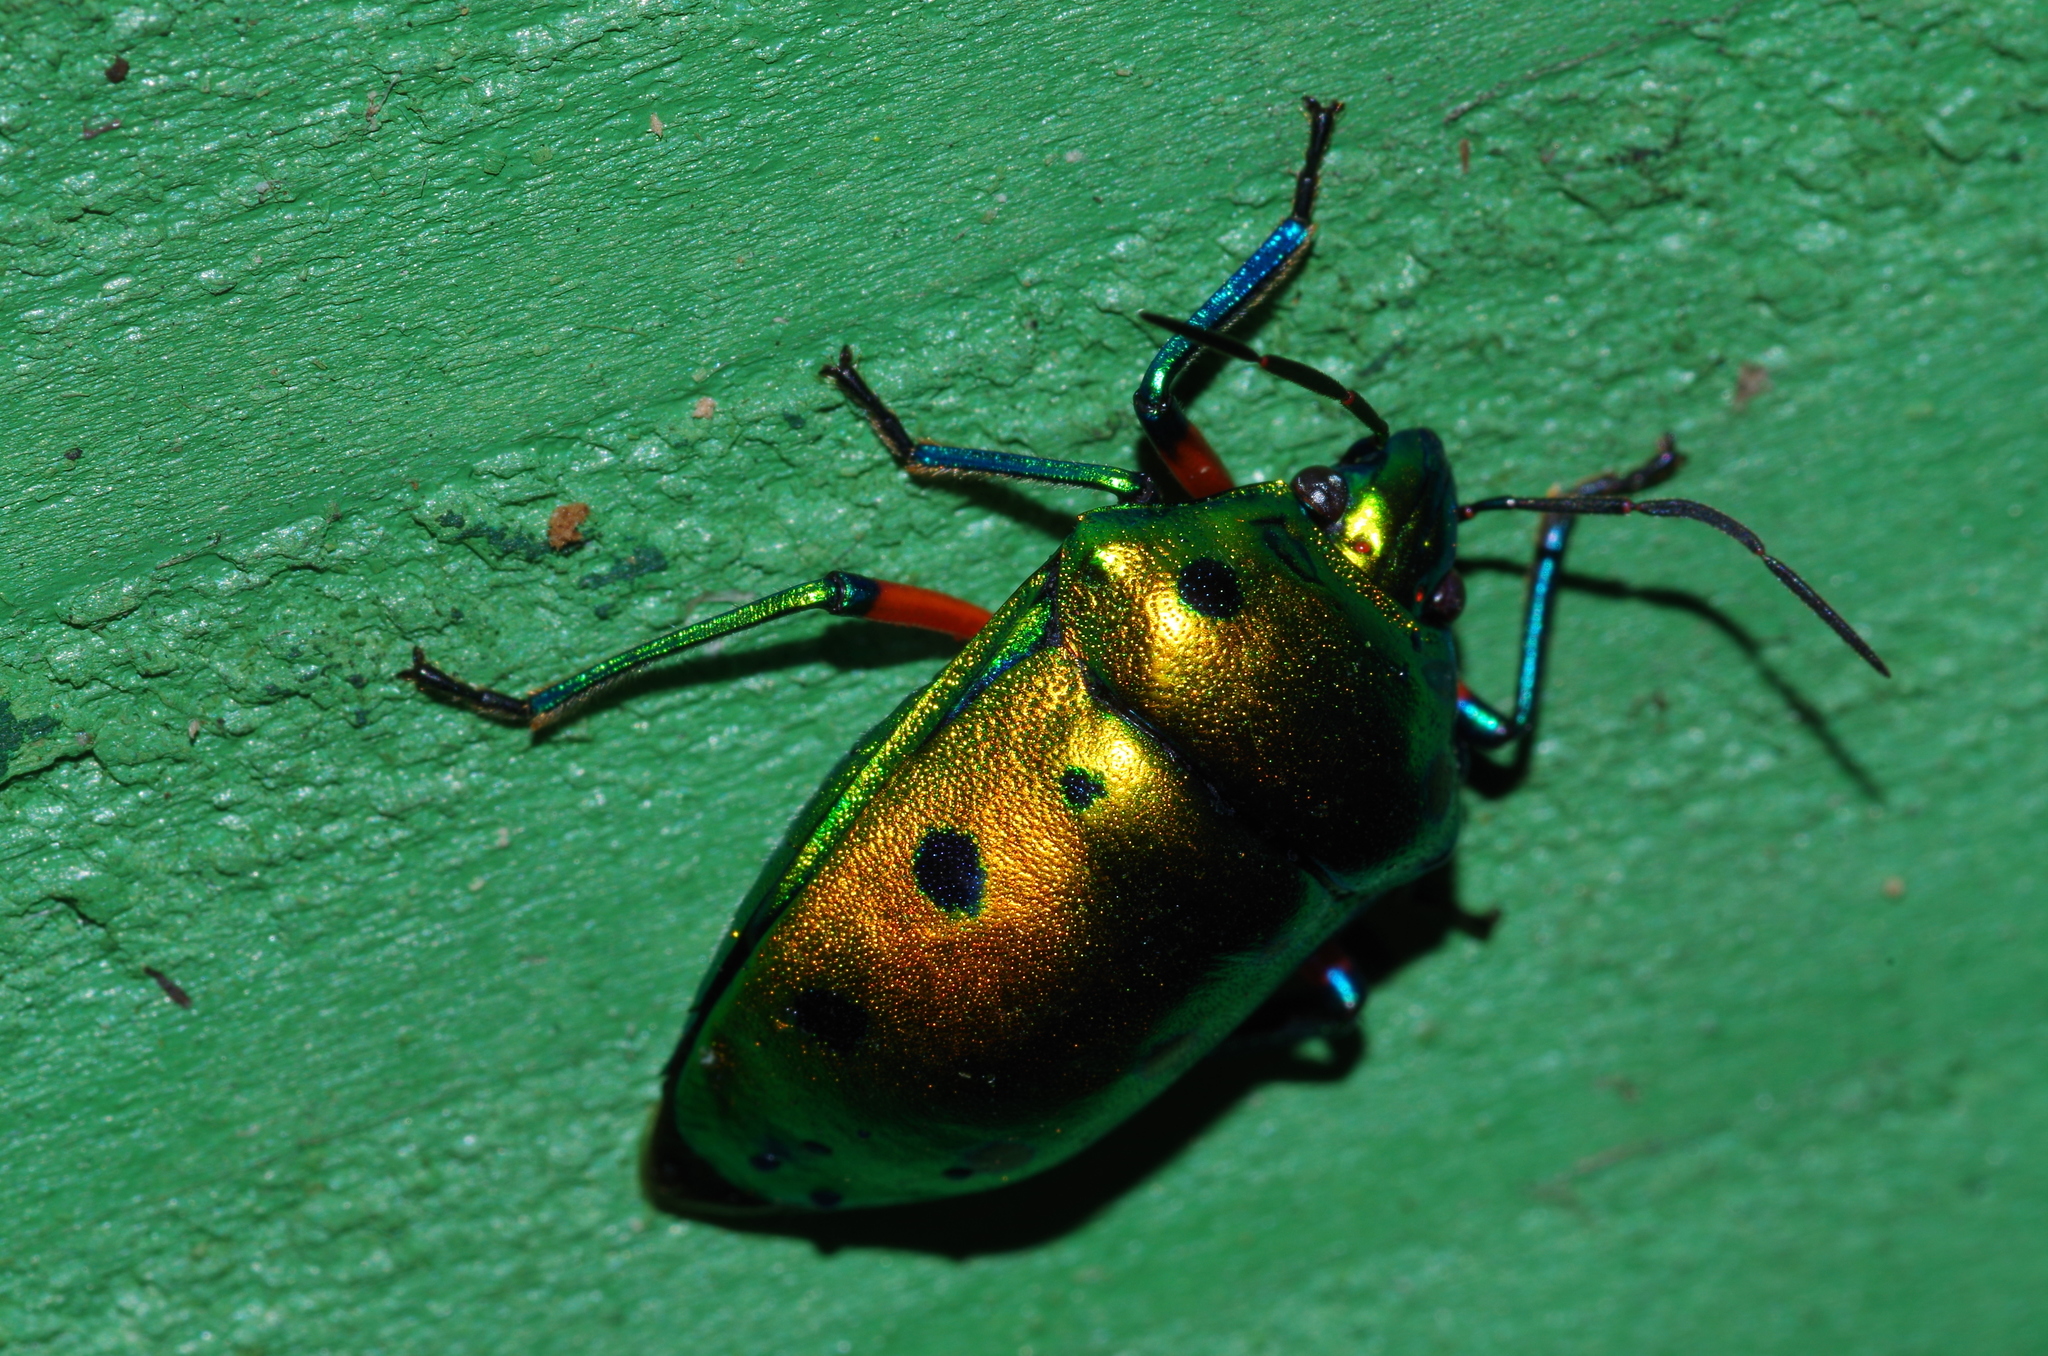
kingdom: Animalia
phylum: Arthropoda
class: Insecta
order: Hemiptera
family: Scutelleridae
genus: Calliphara
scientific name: Calliphara excellens
